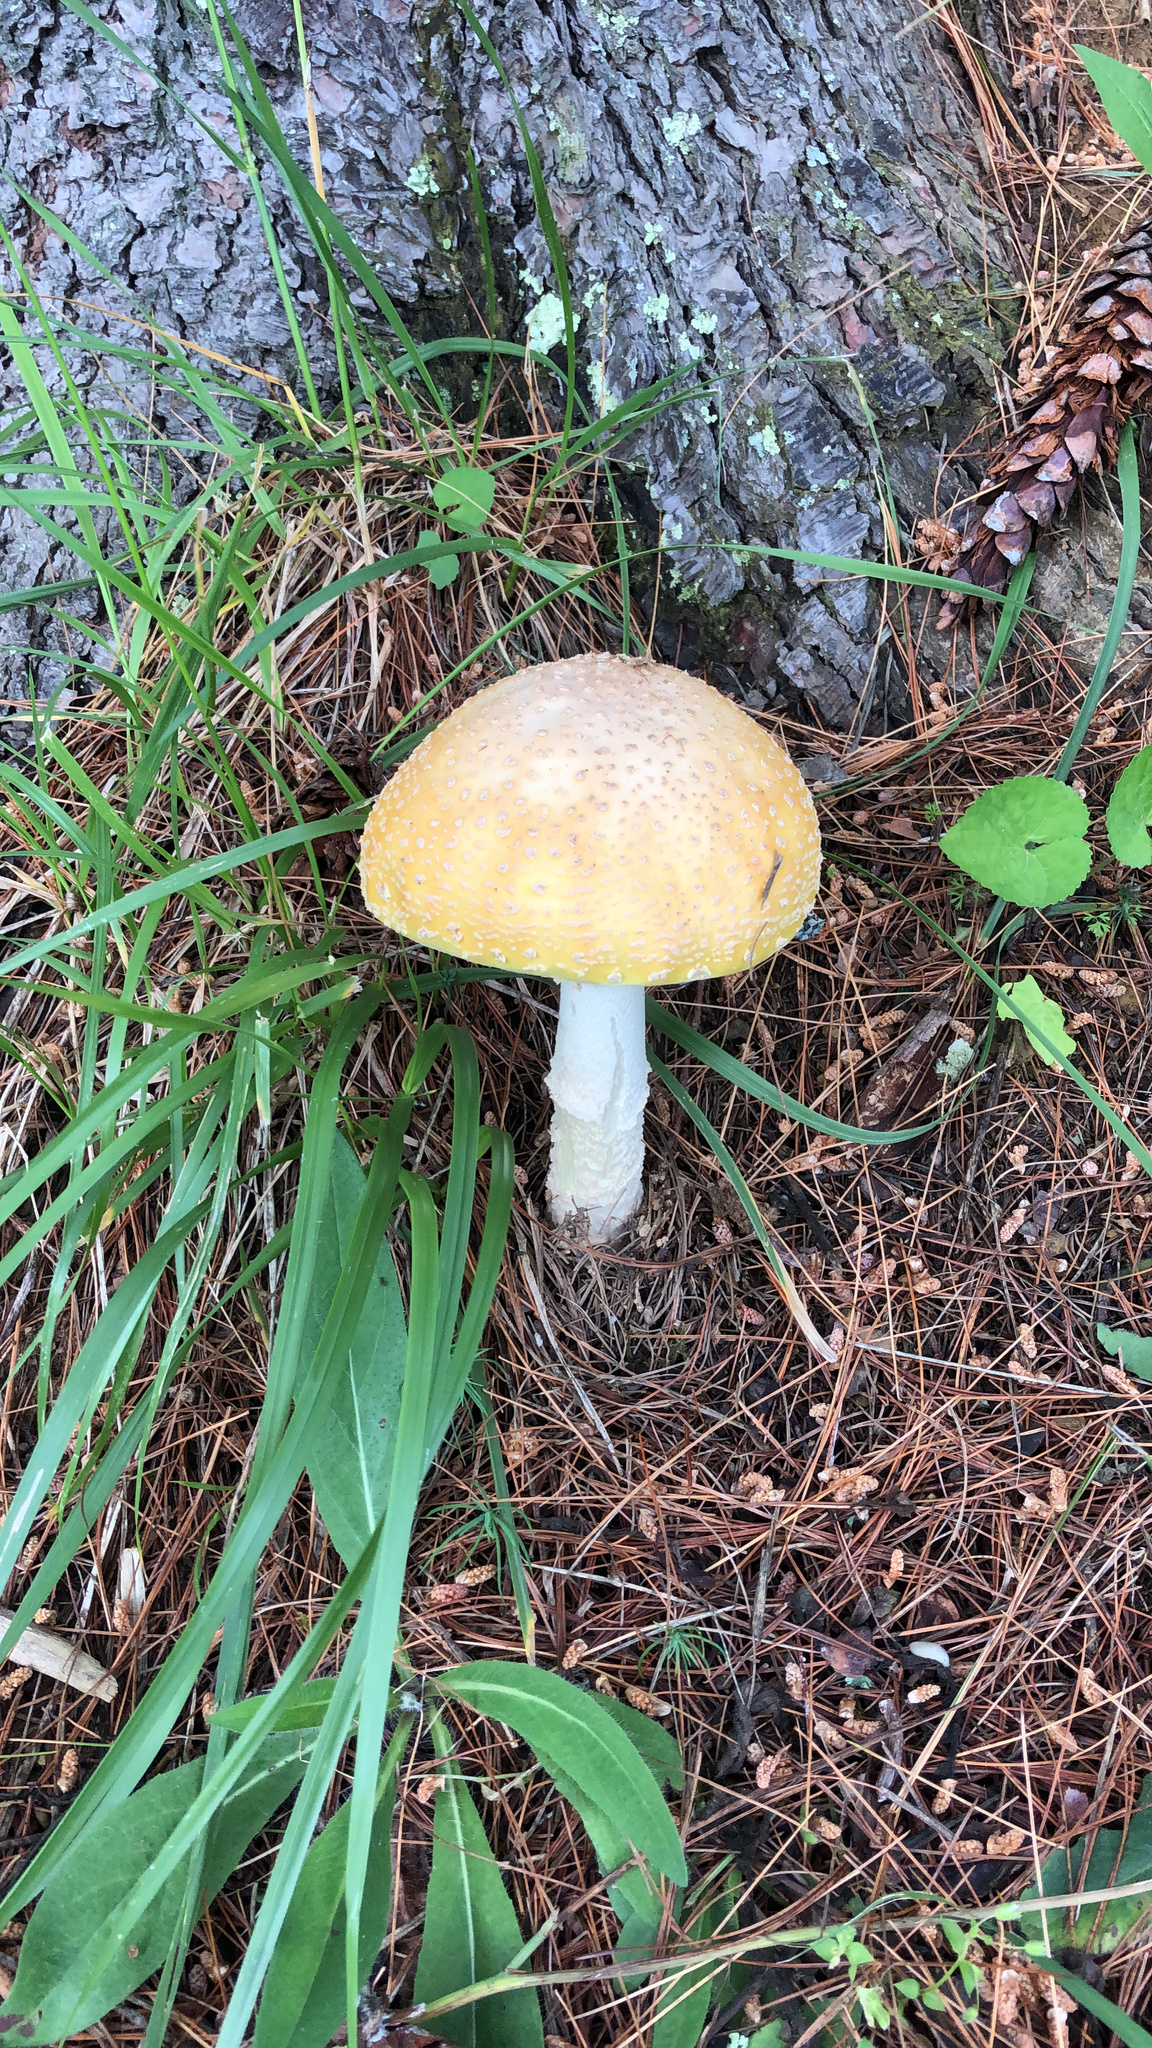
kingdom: Fungi
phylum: Basidiomycota
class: Agaricomycetes
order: Agaricales
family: Amanitaceae
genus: Amanita
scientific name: Amanita muscaria
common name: Fly agaric
